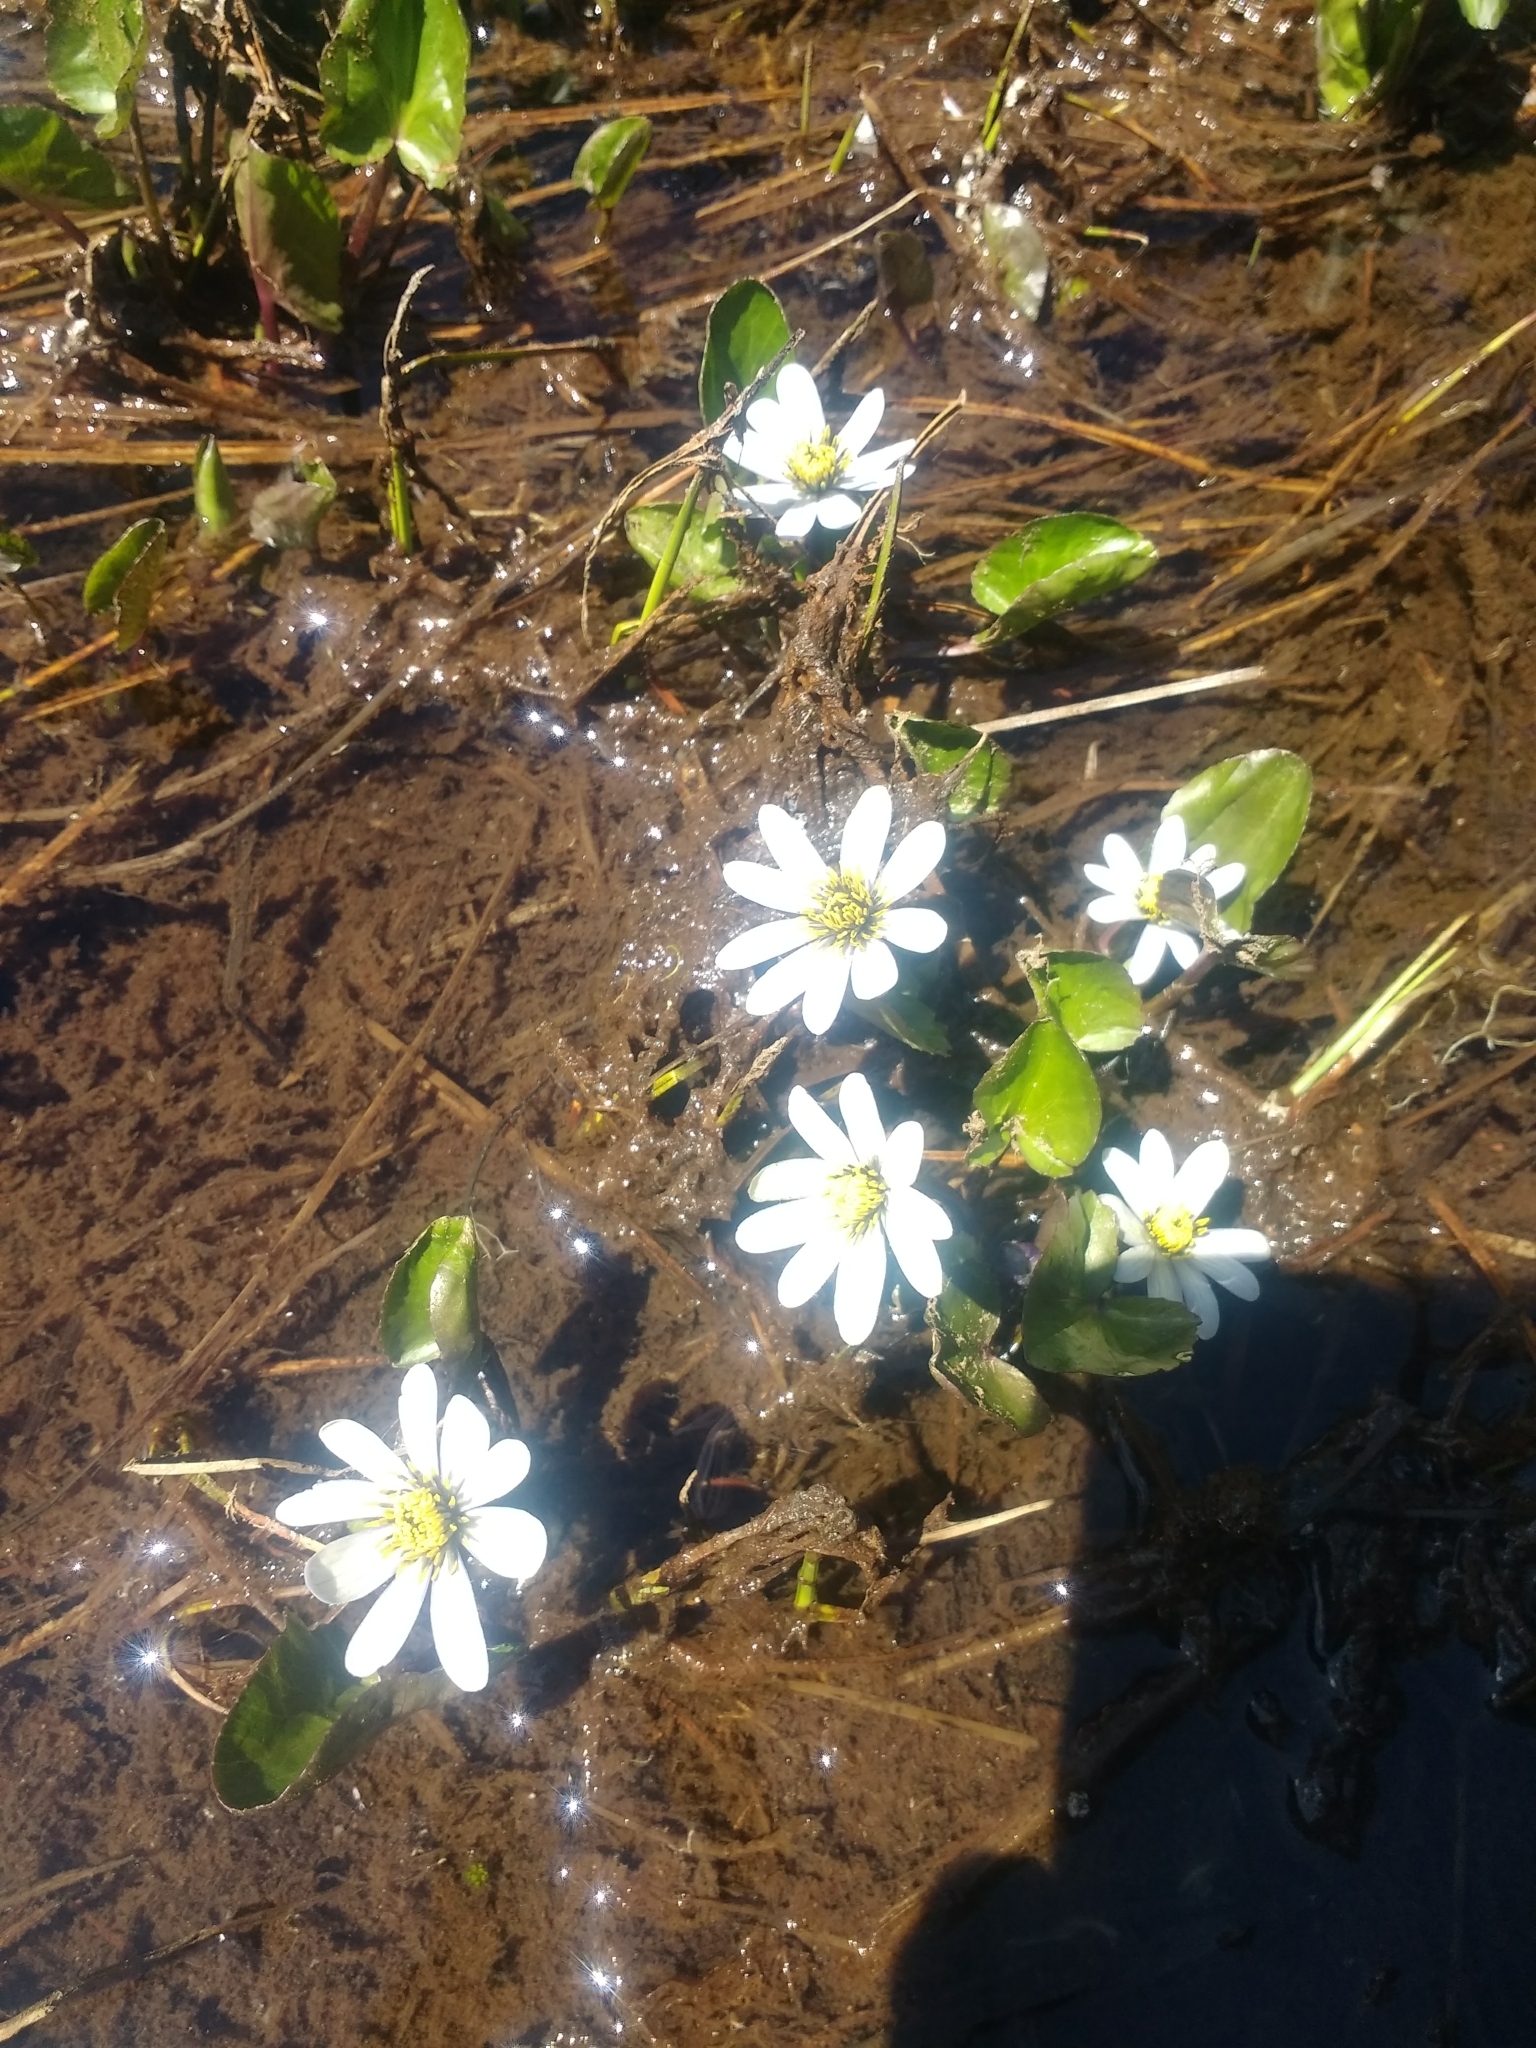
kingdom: Plantae
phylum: Tracheophyta
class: Magnoliopsida
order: Ranunculales
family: Ranunculaceae
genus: Caltha
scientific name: Caltha leptosepala
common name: Elkslip
